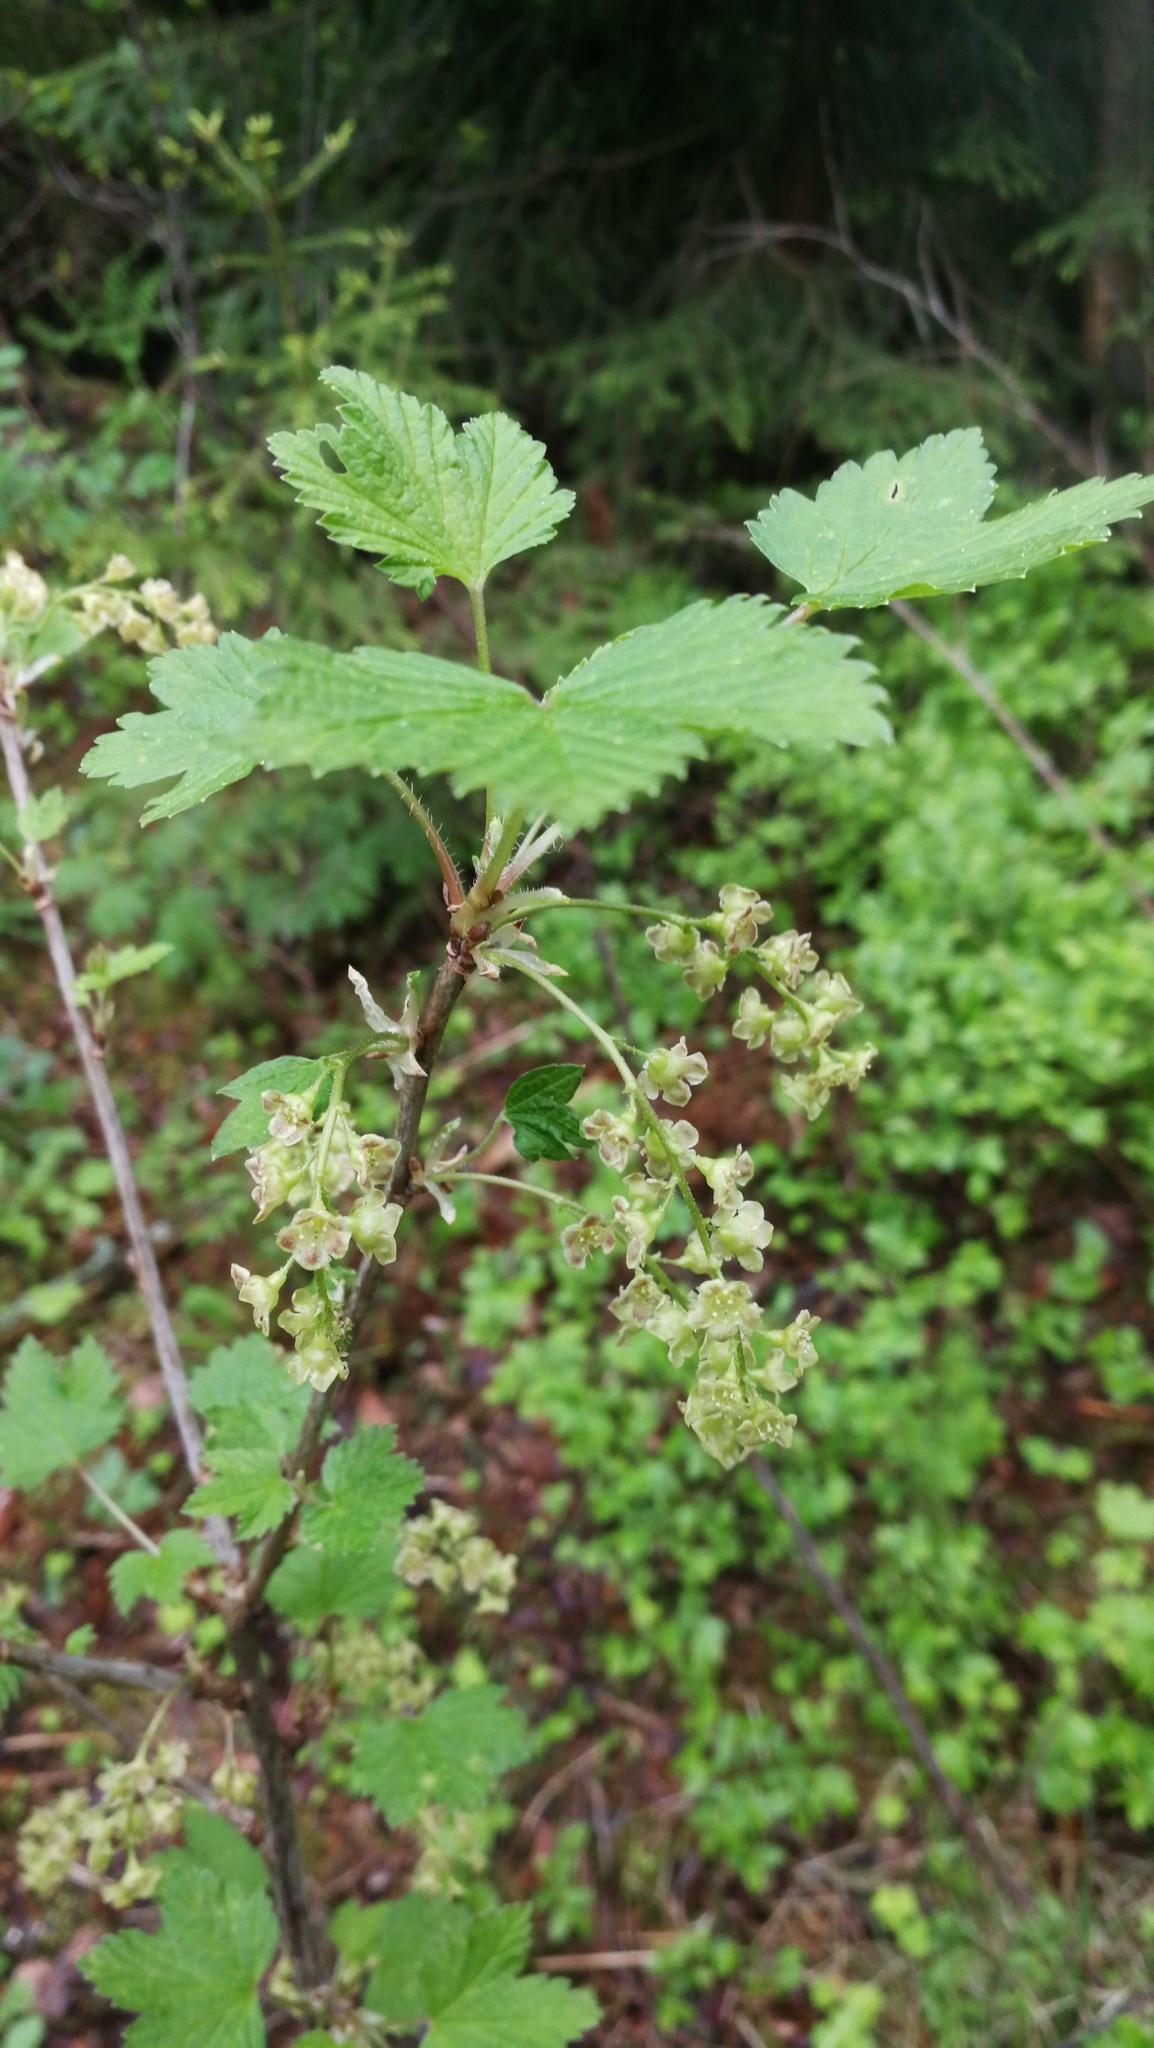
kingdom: Plantae
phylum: Tracheophyta
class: Magnoliopsida
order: Saxifragales
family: Grossulariaceae
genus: Ribes
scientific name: Ribes alpinum
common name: Alpine currant
